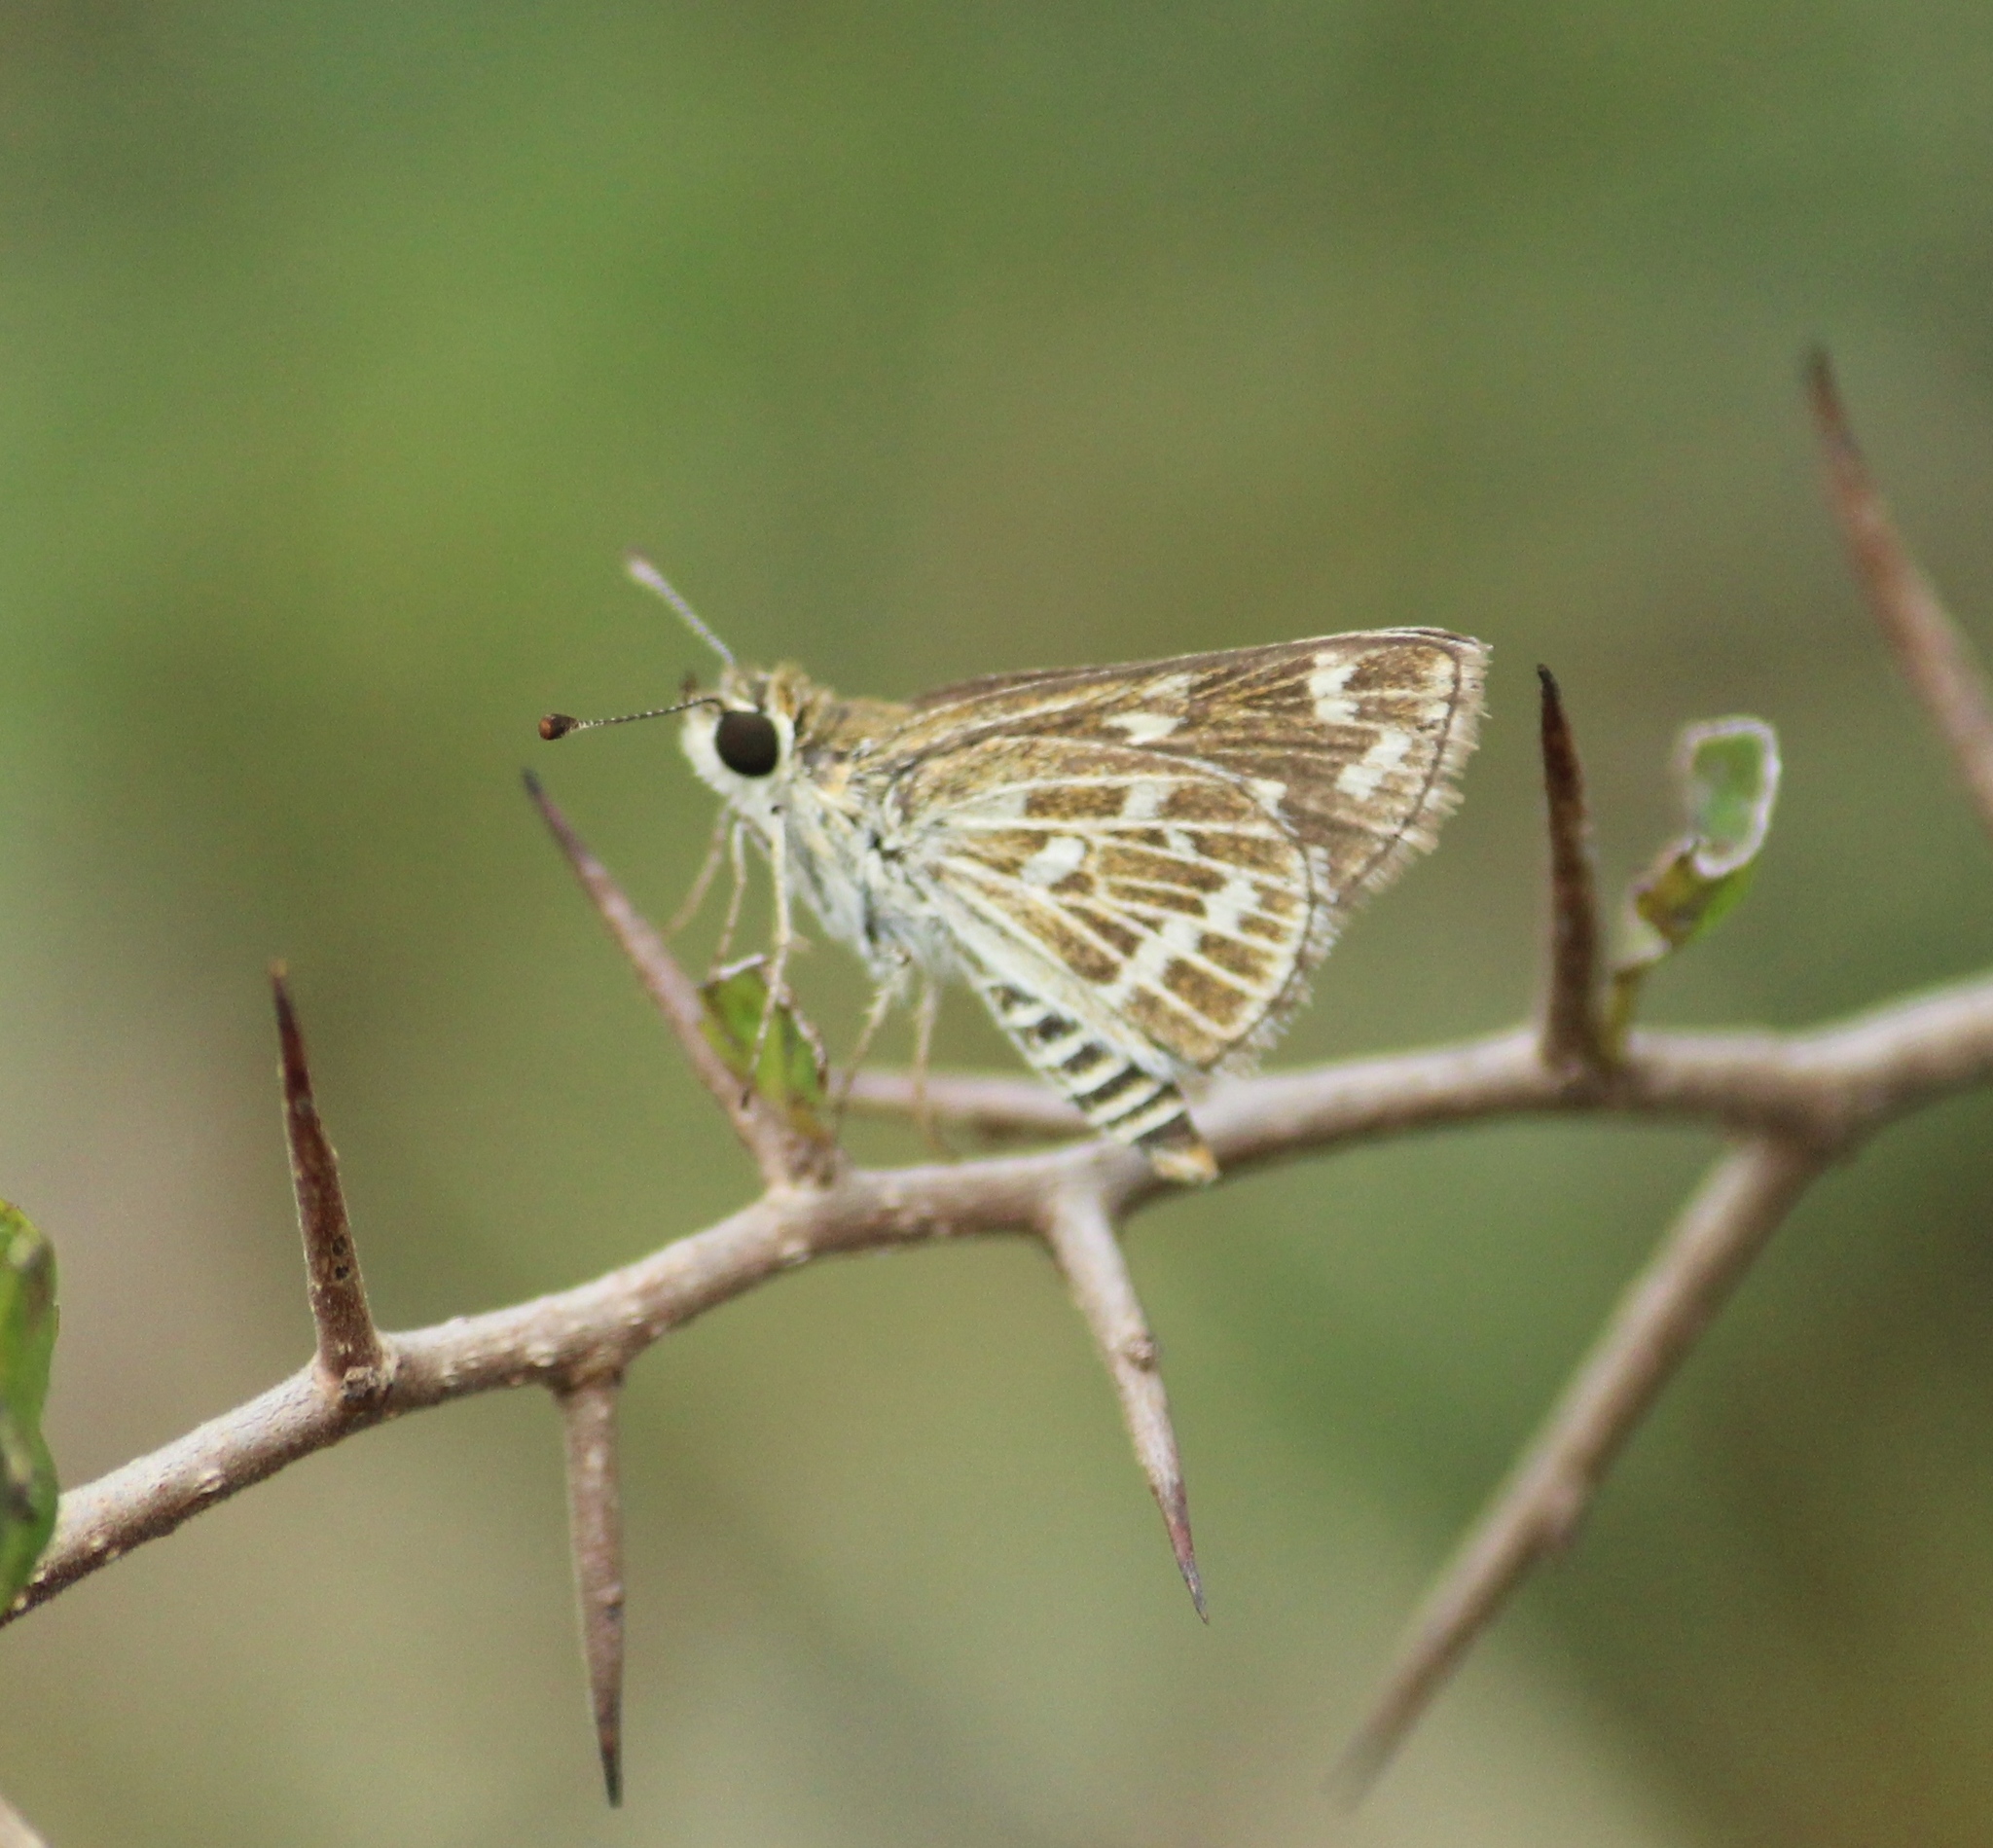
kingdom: Animalia
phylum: Arthropoda
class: Insecta
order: Lepidoptera
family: Hesperiidae
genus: Taractrocera
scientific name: Taractrocera maevius
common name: Common grass-dart
